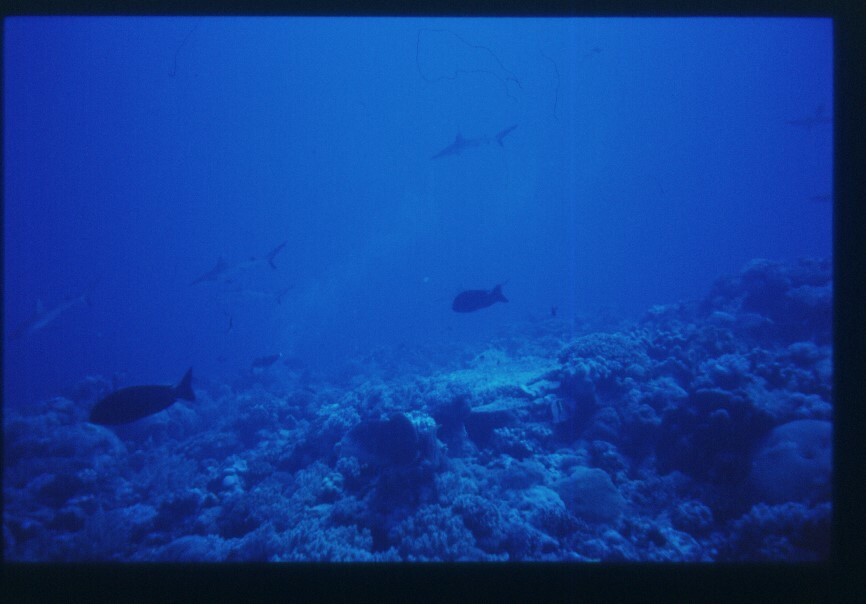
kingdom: Animalia
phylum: Chordata
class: Elasmobranchii
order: Carcharhiniformes
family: Carcharhinidae
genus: Carcharhinus
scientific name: Carcharhinus amblyrhynchos
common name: Grey reef shark
